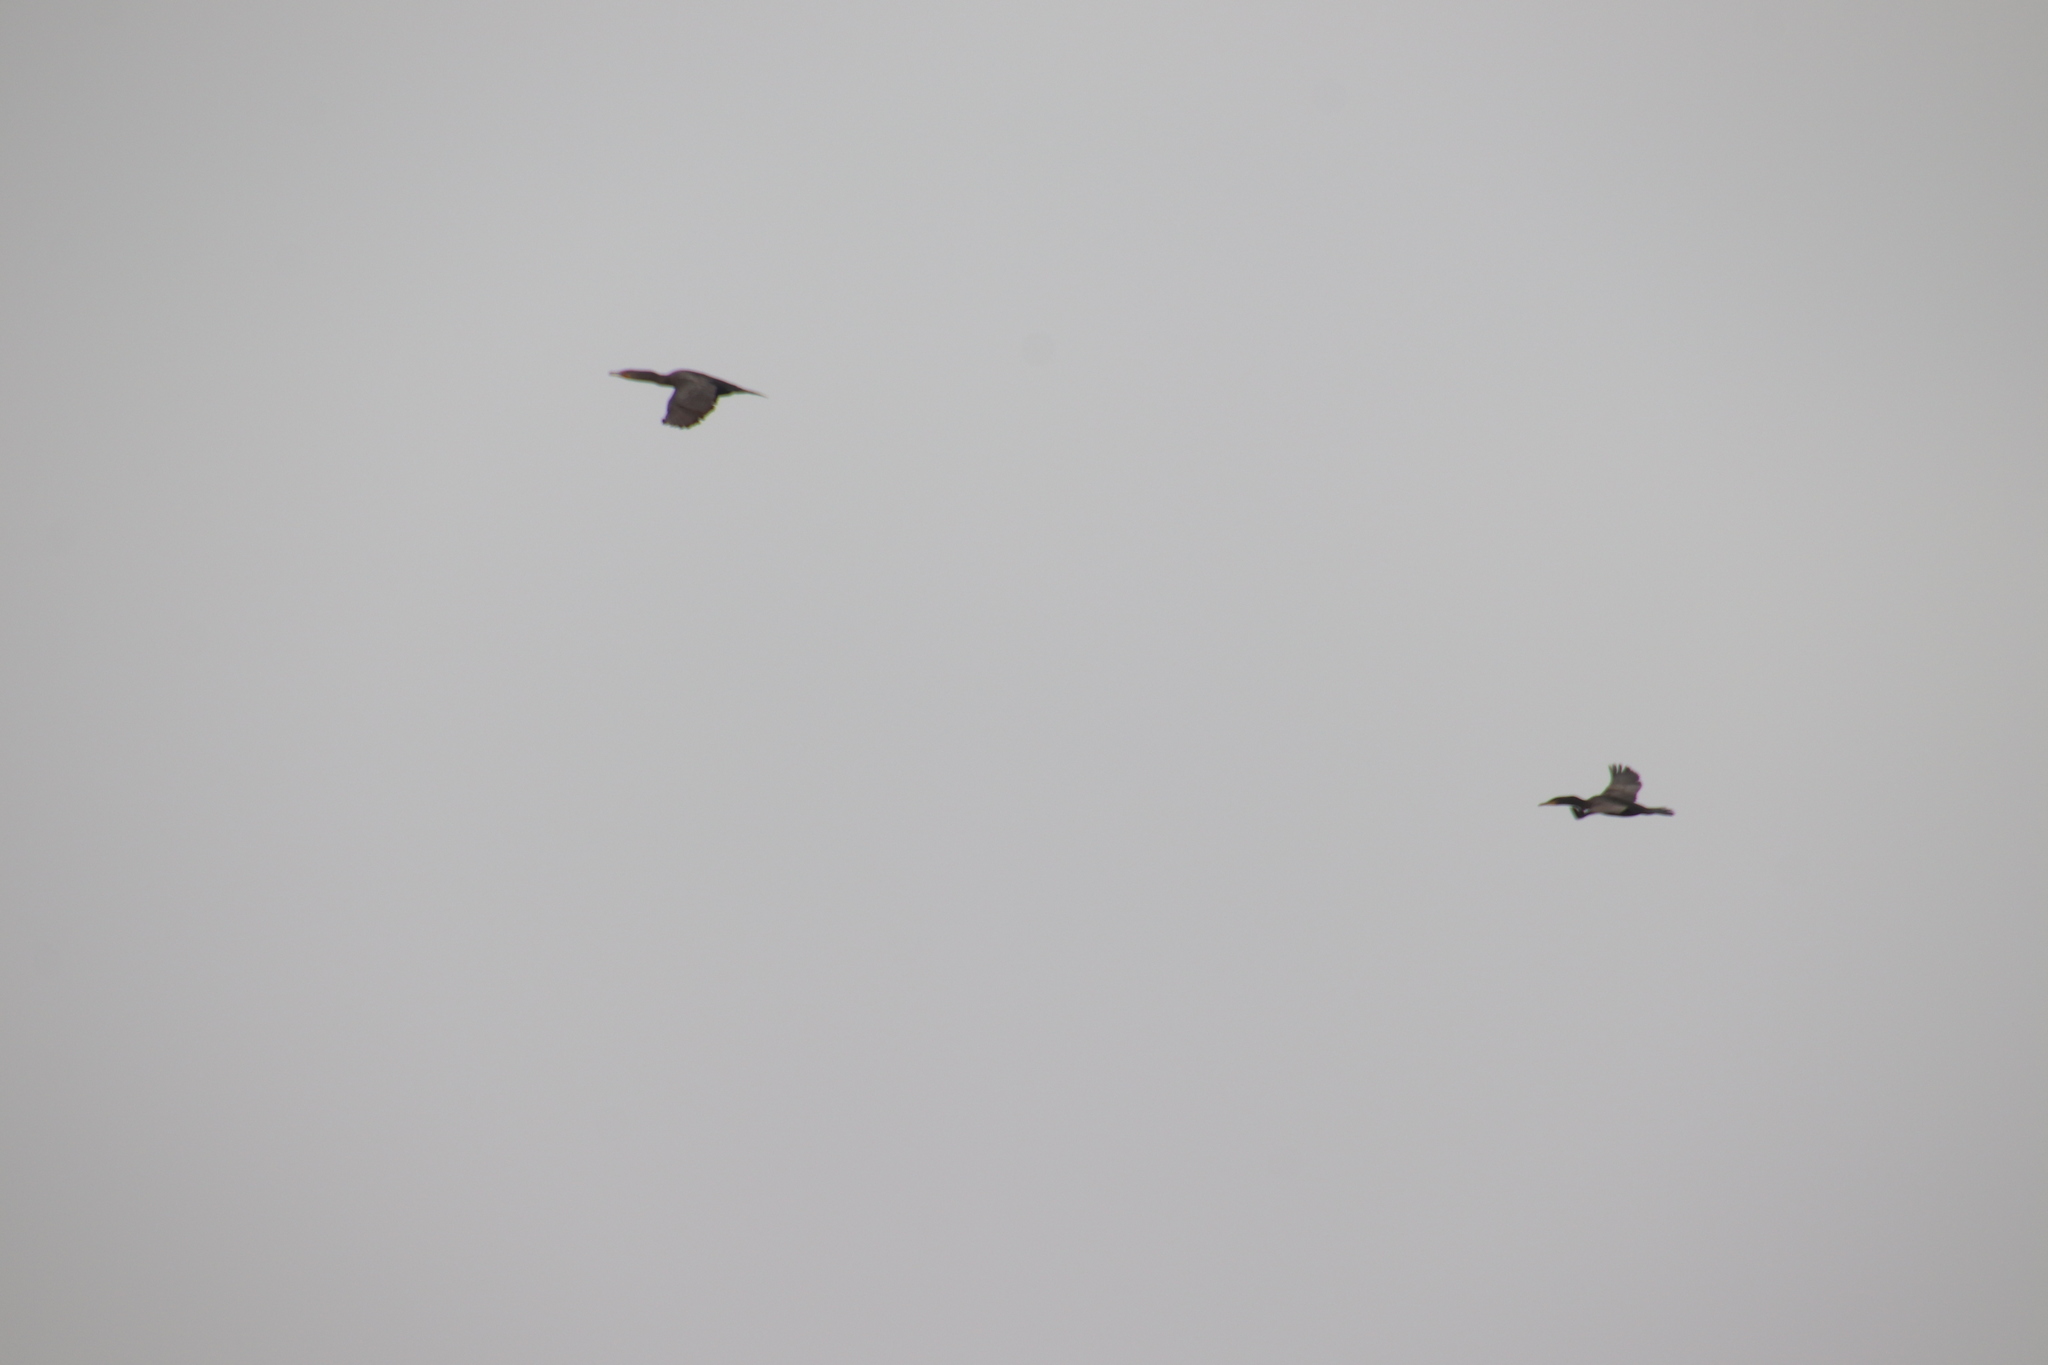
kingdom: Animalia
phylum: Chordata
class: Aves
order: Suliformes
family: Phalacrocoracidae
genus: Phalacrocorax
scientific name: Phalacrocorax auritus
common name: Double-crested cormorant
